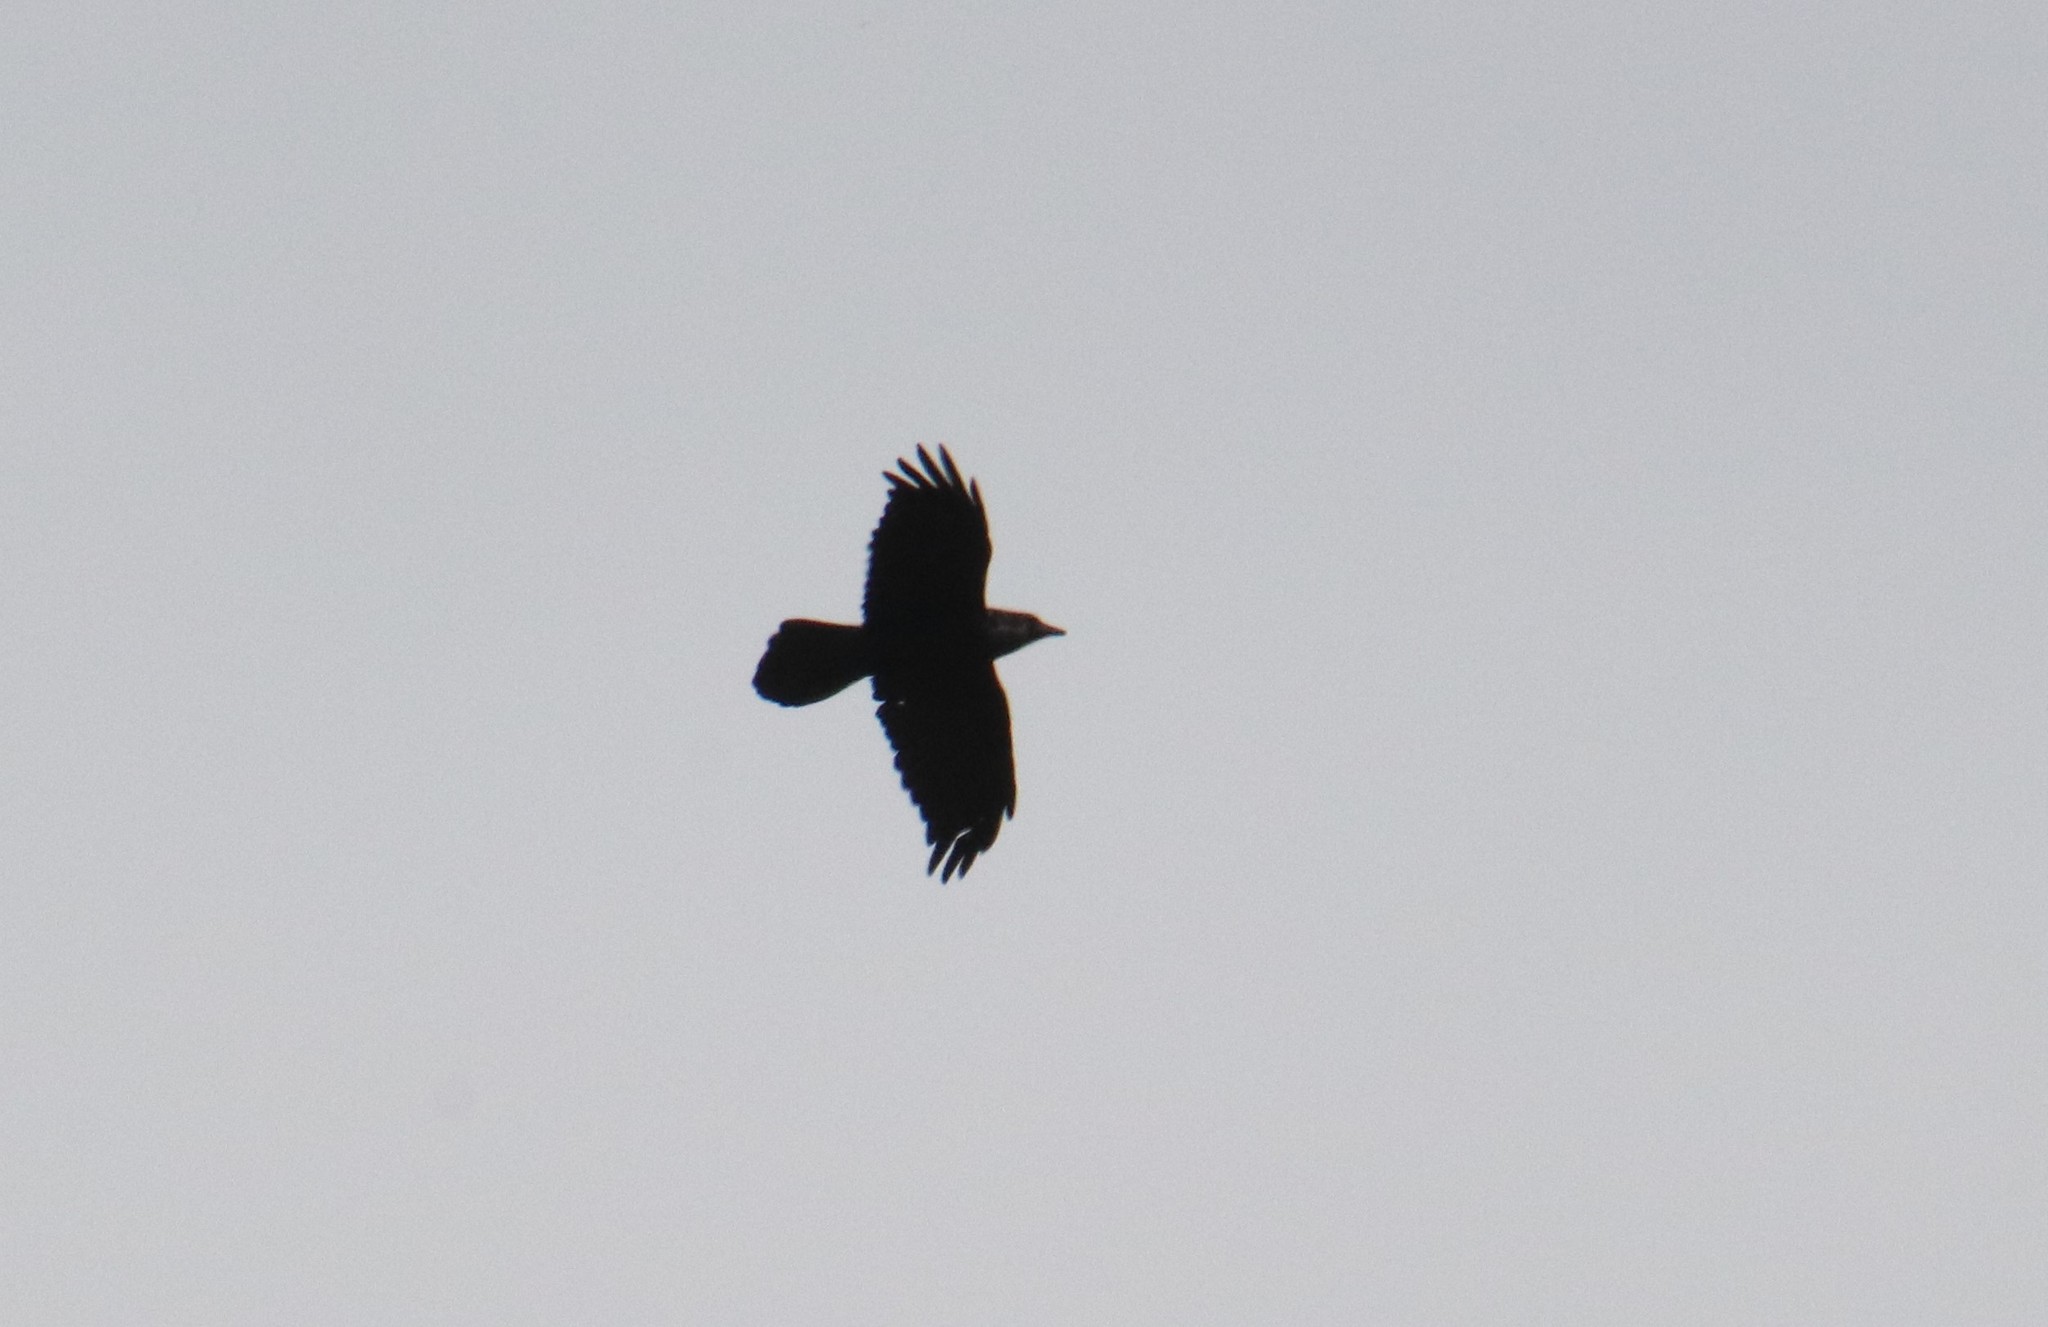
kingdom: Animalia
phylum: Chordata
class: Aves
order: Passeriformes
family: Corvidae
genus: Corvus
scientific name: Corvus corax
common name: Common raven
